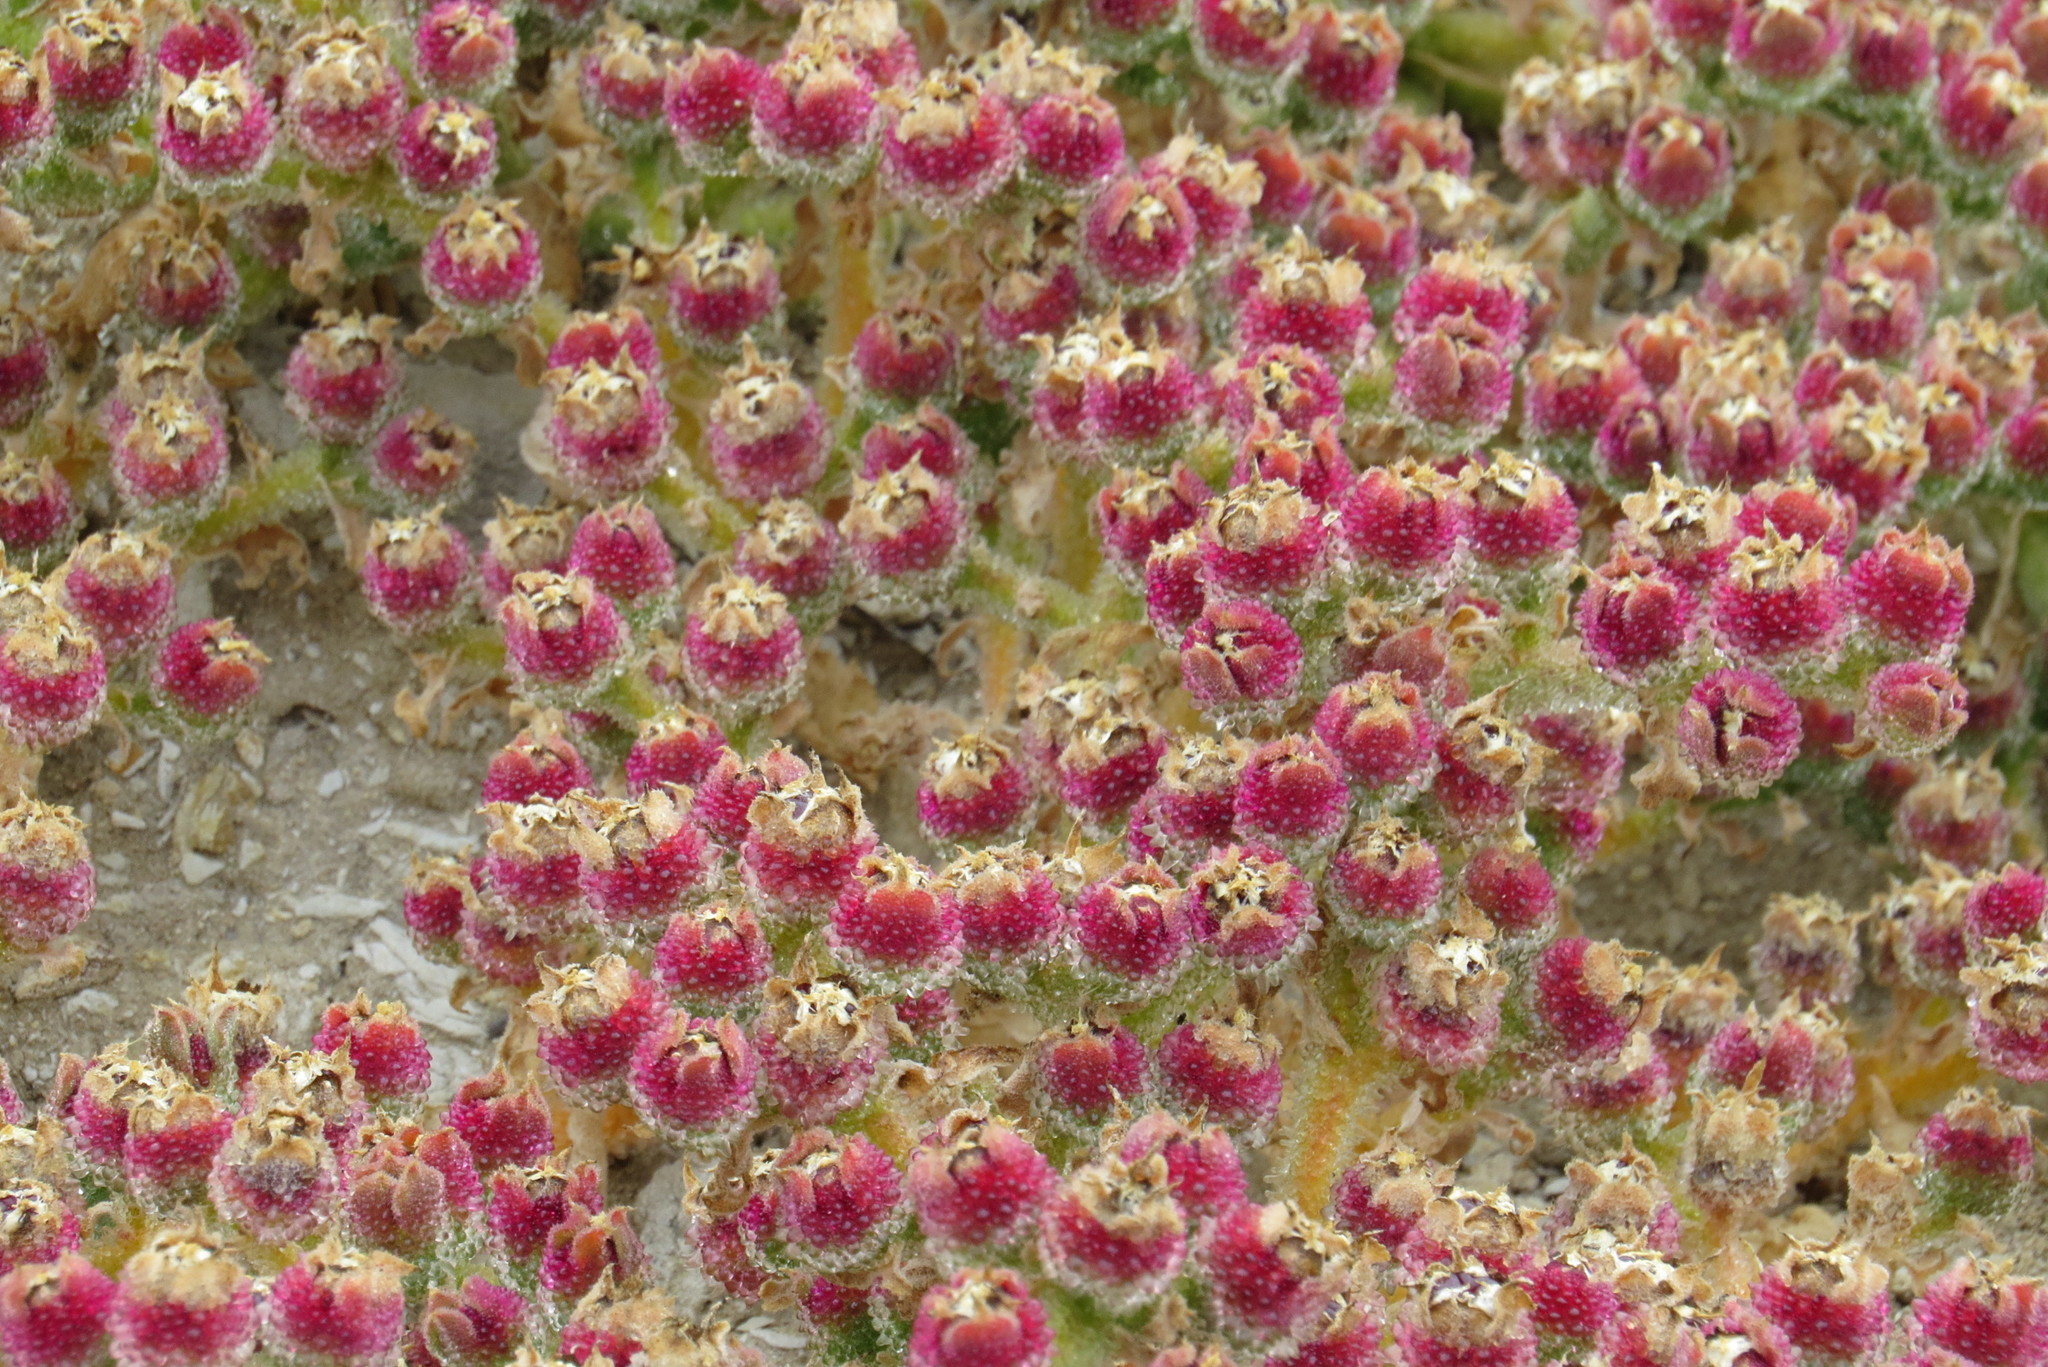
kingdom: Plantae
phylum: Tracheophyta
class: Magnoliopsida
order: Caryophyllales
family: Aizoaceae
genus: Mesembryanthemum
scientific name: Mesembryanthemum crystallinum
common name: Common iceplant
